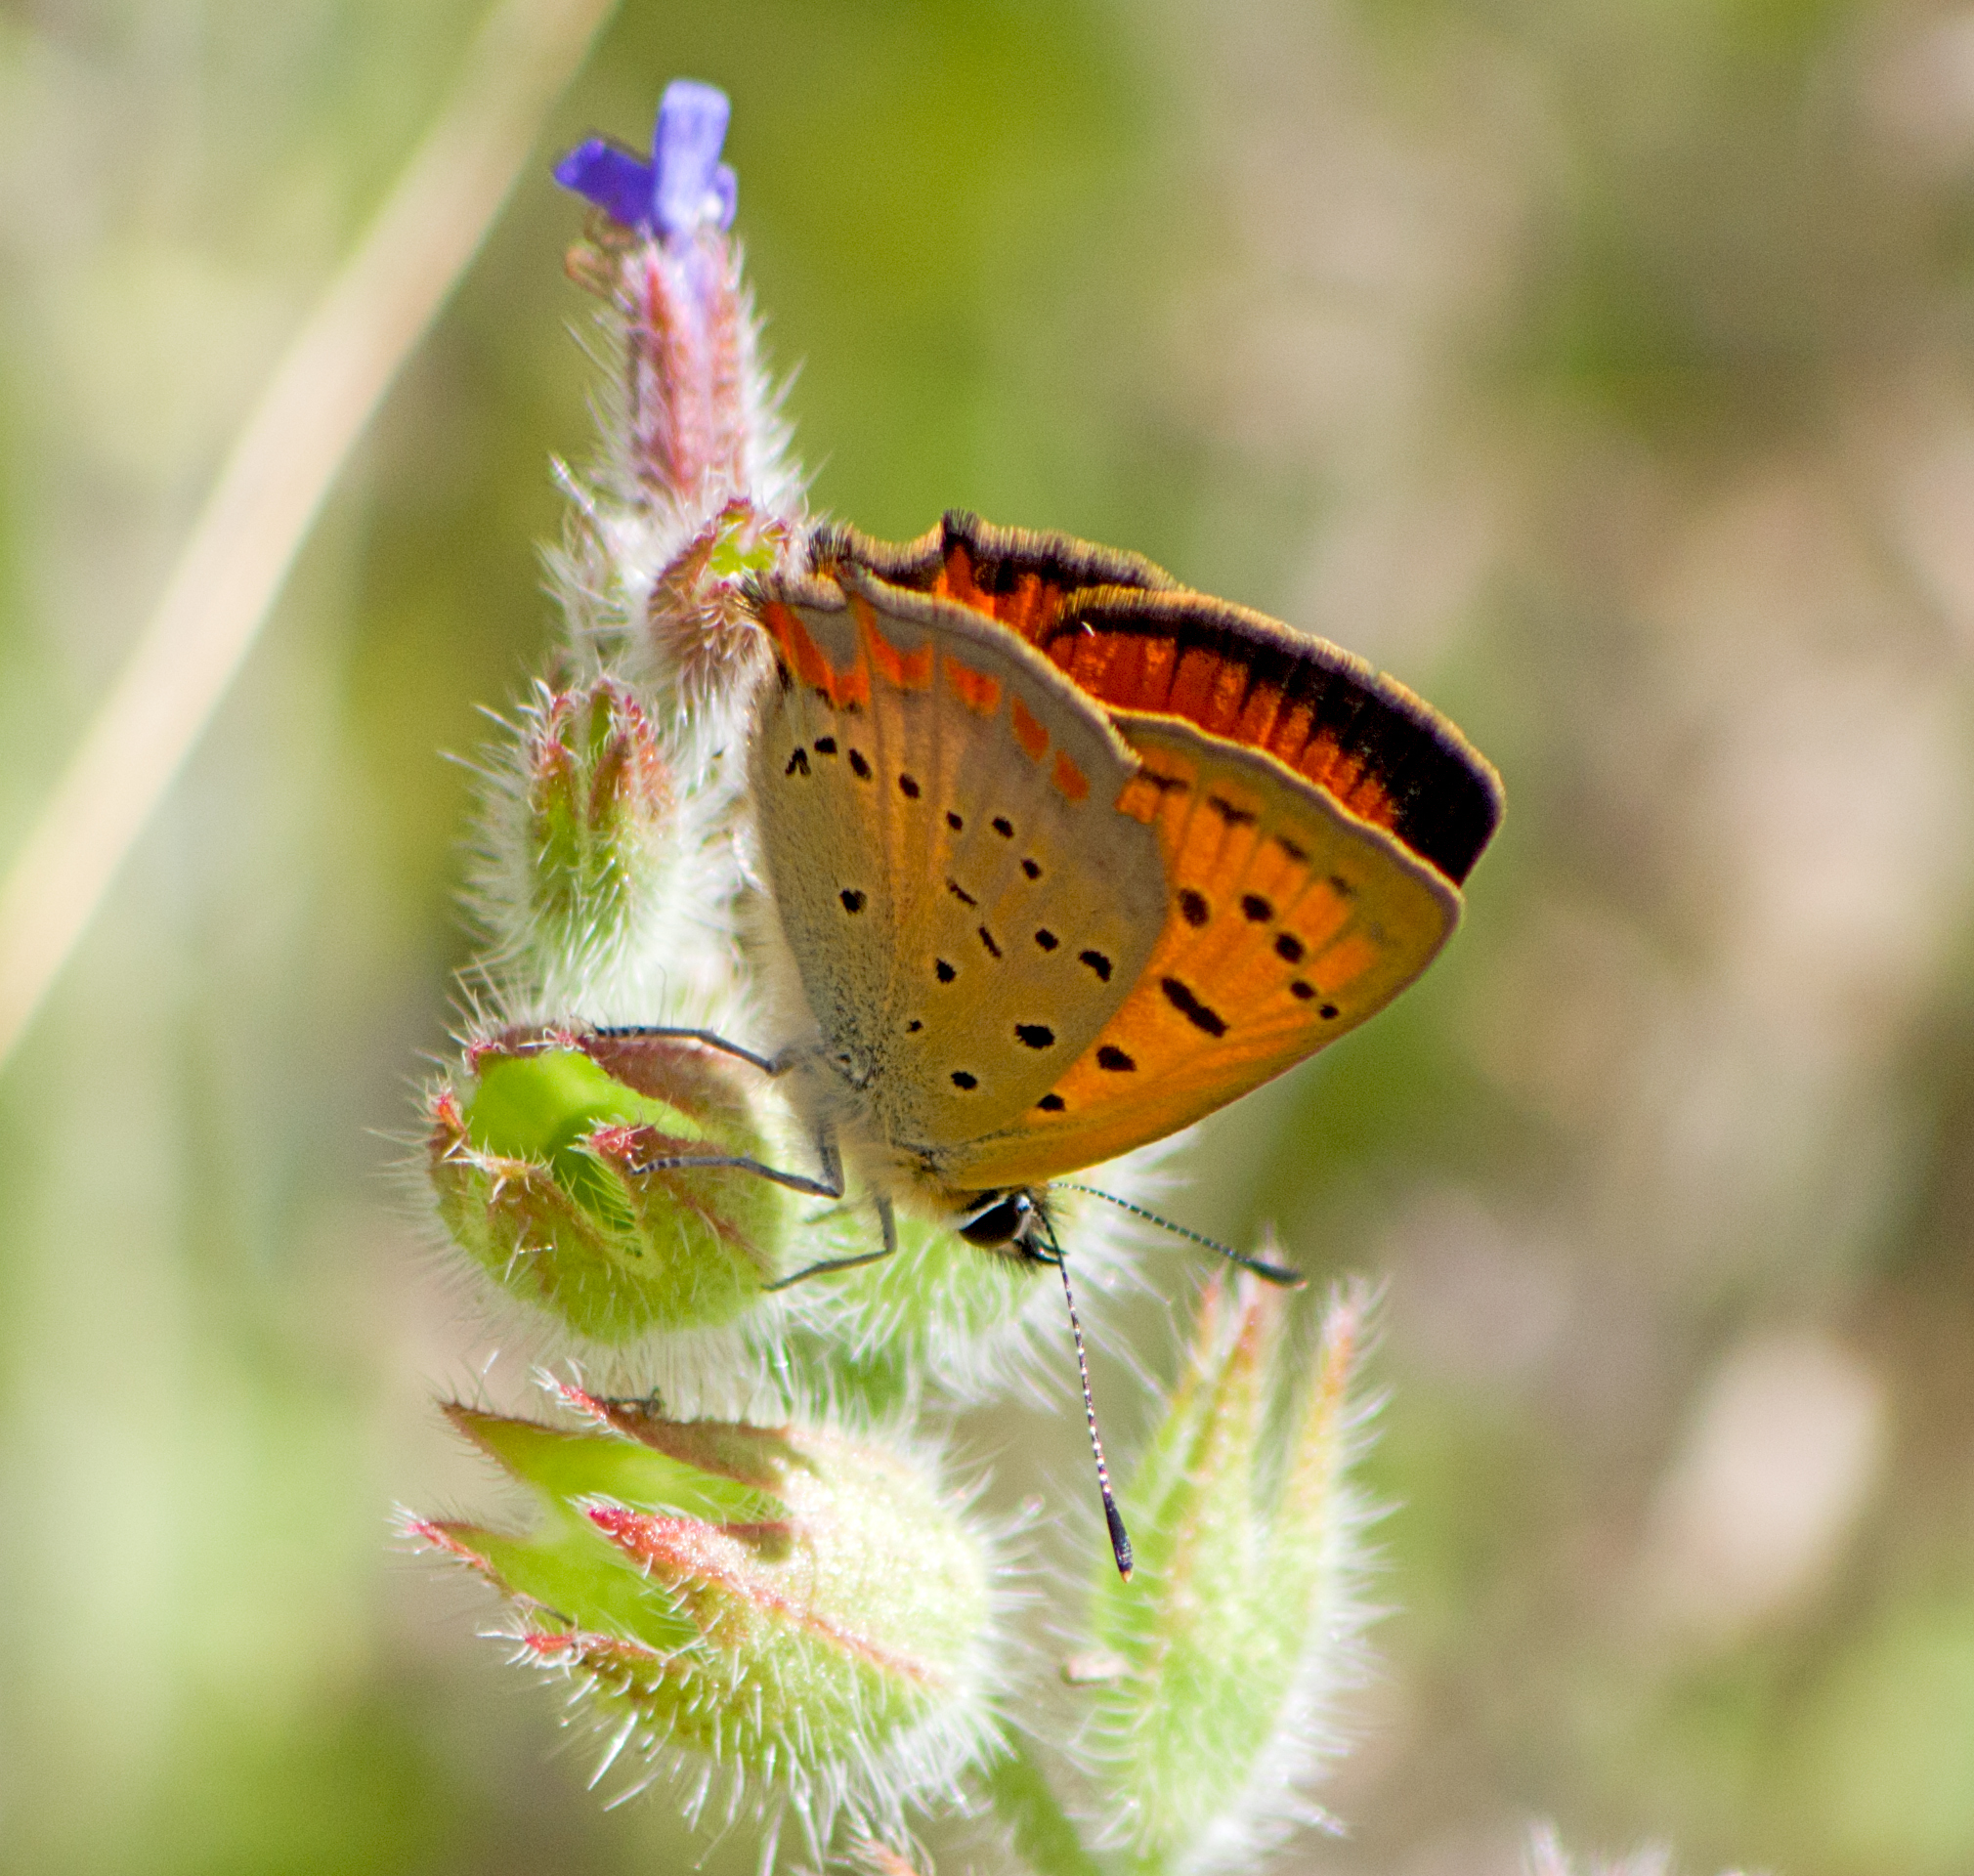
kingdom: Animalia
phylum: Arthropoda
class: Insecta
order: Lepidoptera
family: Lycaenidae
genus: Polyommatus
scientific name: Polyommatus ottomanus
